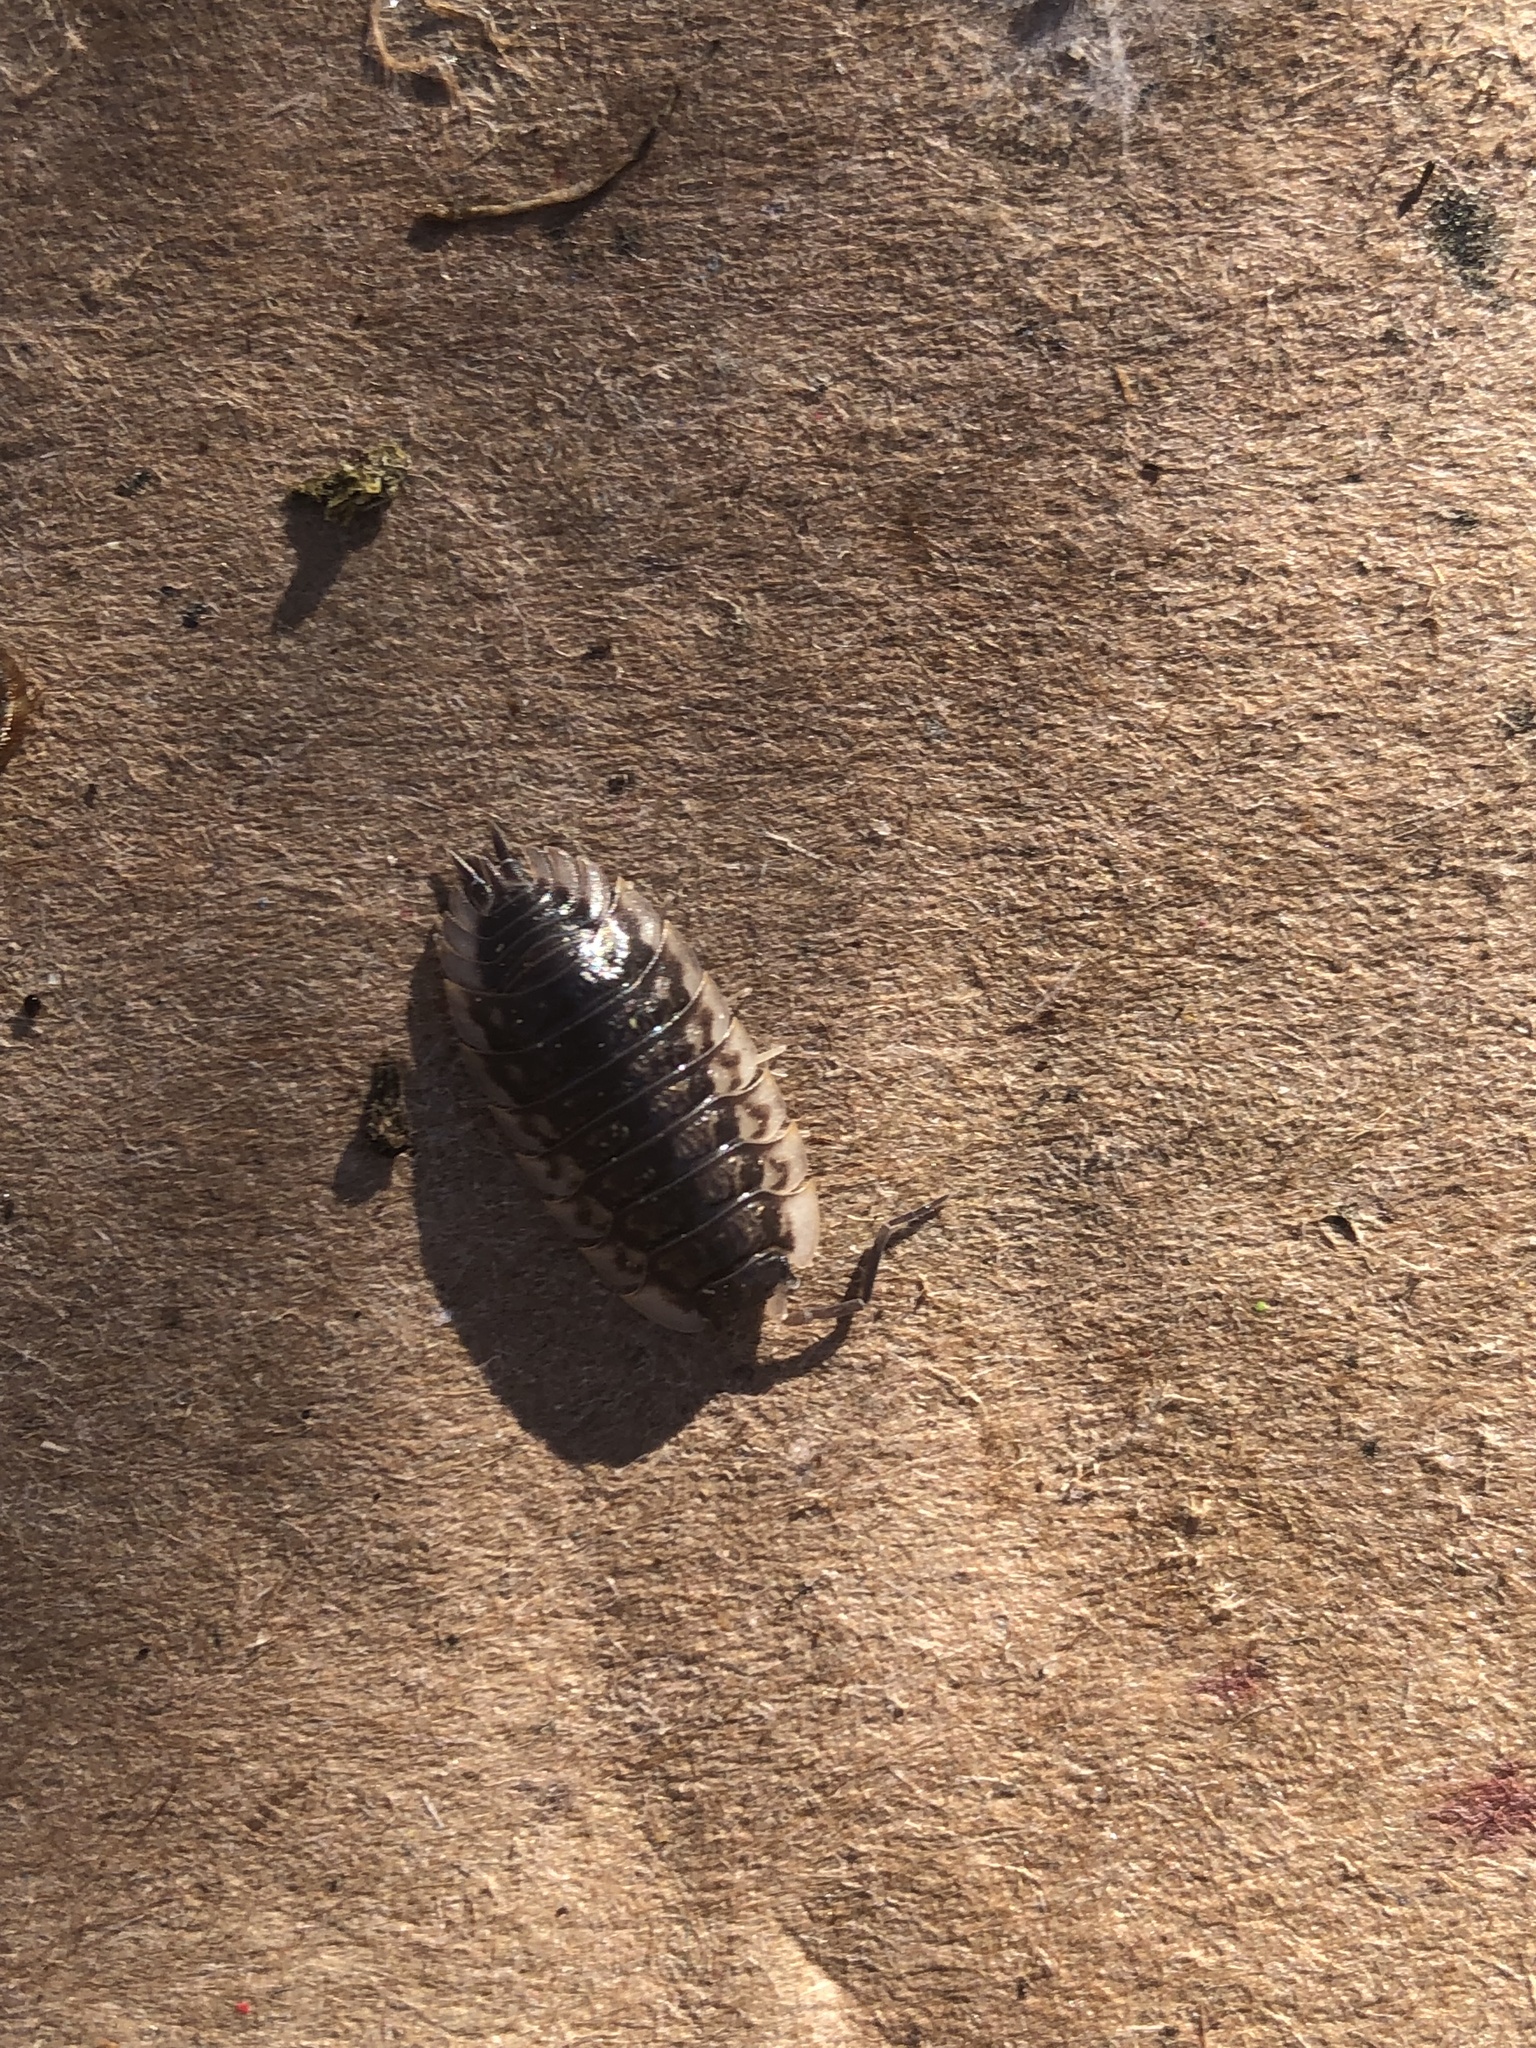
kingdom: Animalia
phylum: Arthropoda
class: Malacostraca
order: Isopoda
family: Oniscidae
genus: Oniscus
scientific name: Oniscus asellus
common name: Common shiny woodlouse
